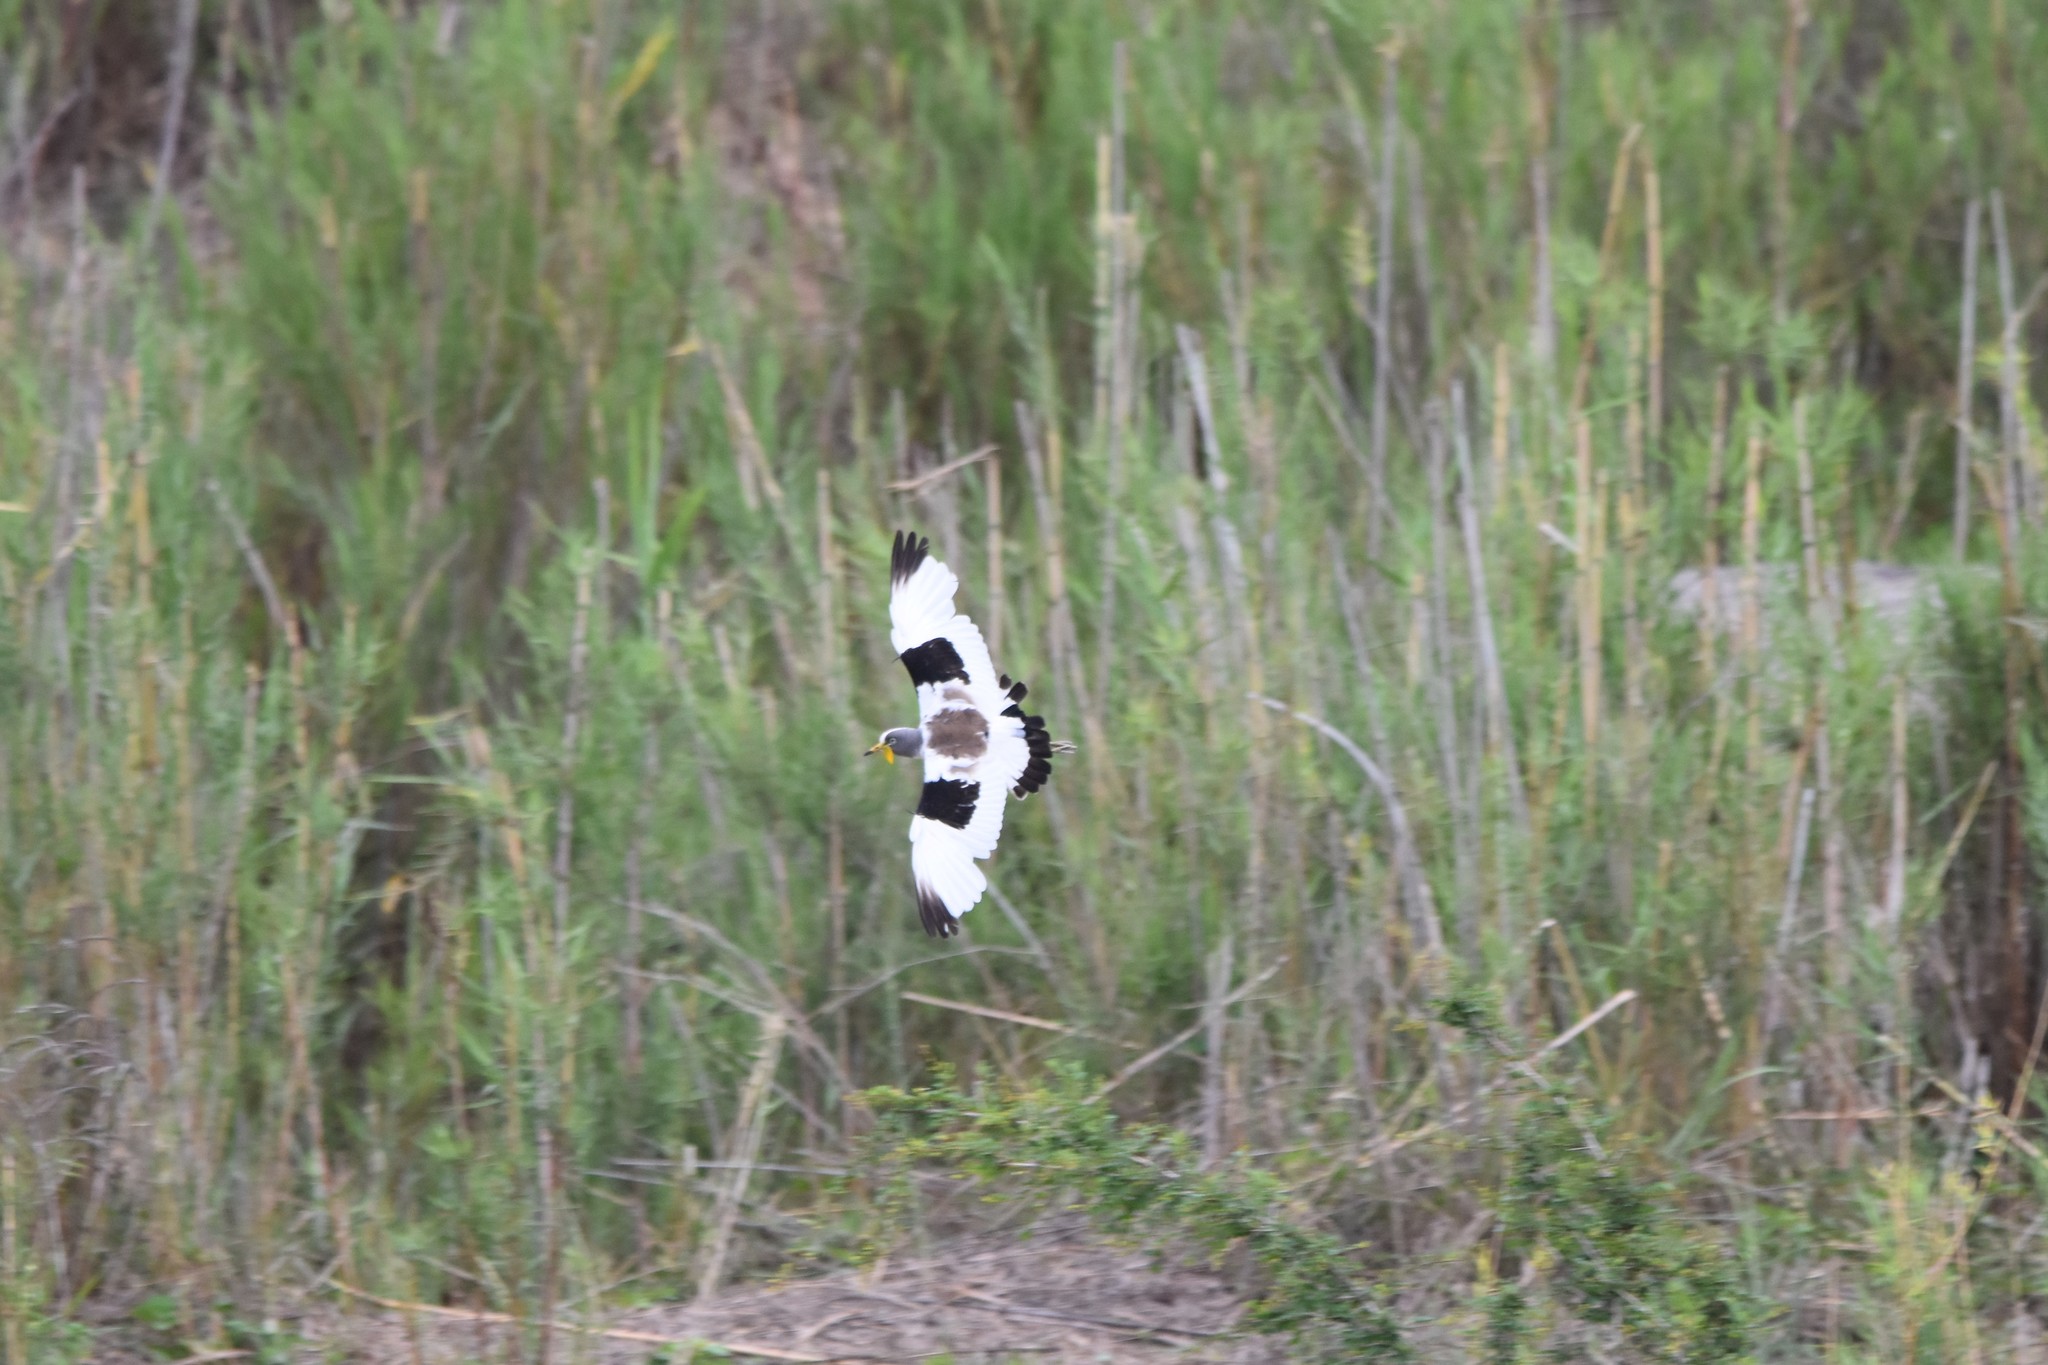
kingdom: Animalia
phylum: Chordata
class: Aves
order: Charadriiformes
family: Charadriidae
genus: Vanellus
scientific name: Vanellus albiceps
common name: White-crowned lapwing
